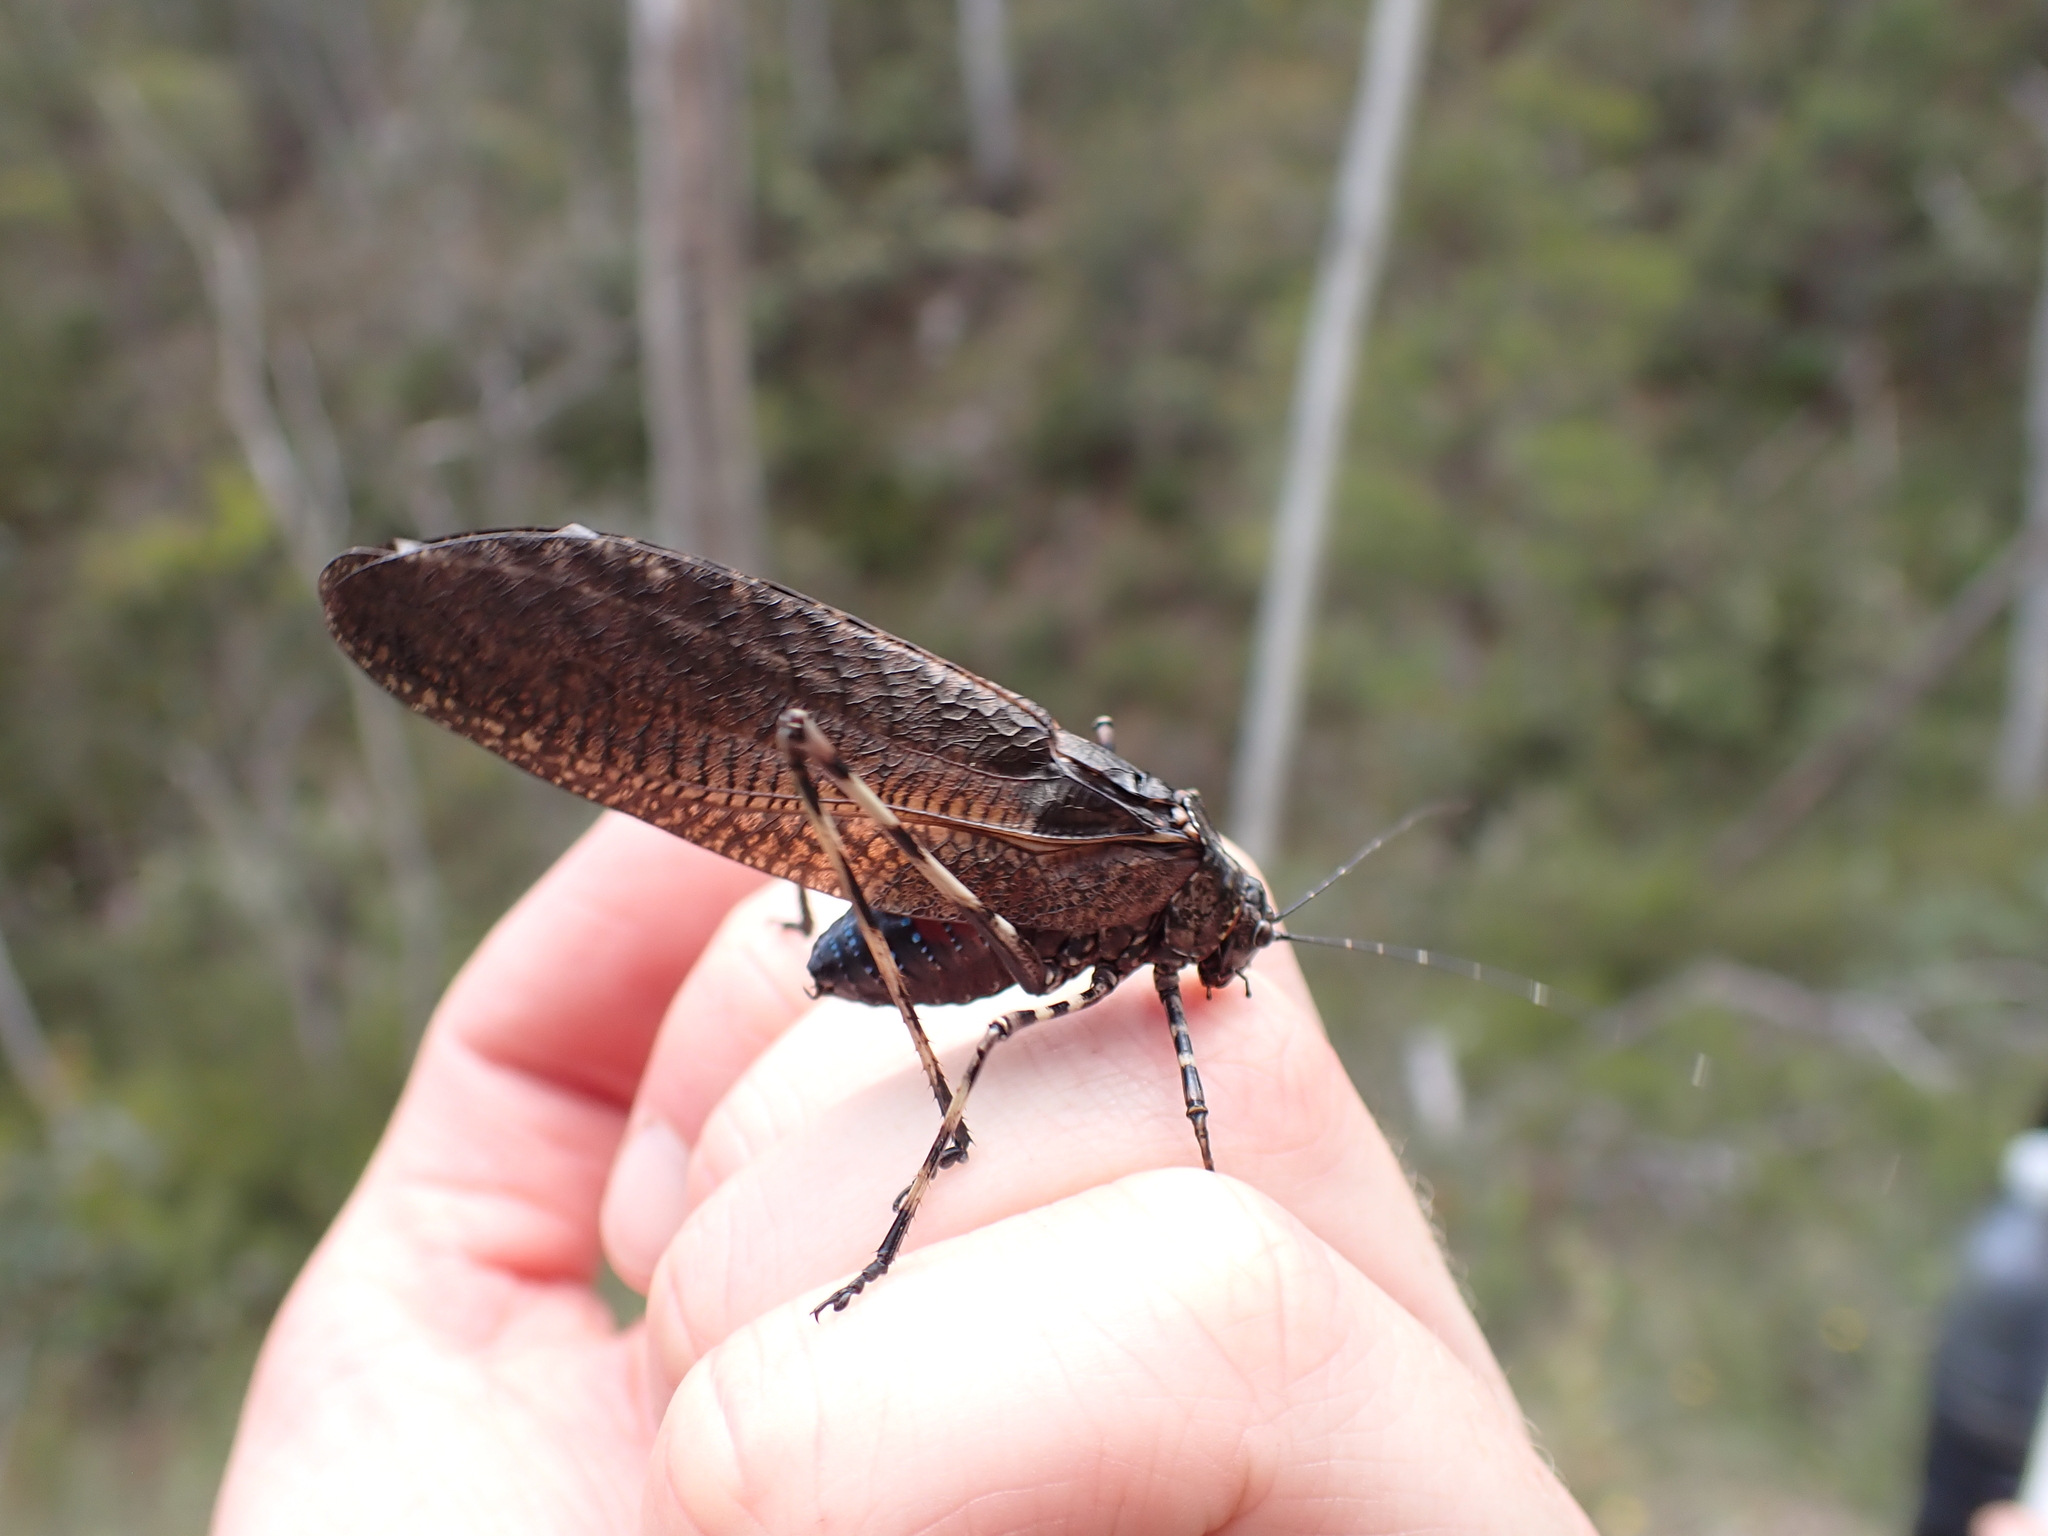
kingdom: Animalia
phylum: Arthropoda
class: Insecta
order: Orthoptera
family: Tettigoniidae
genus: Acripeza
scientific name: Acripeza reticulata
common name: Mountain katydid
